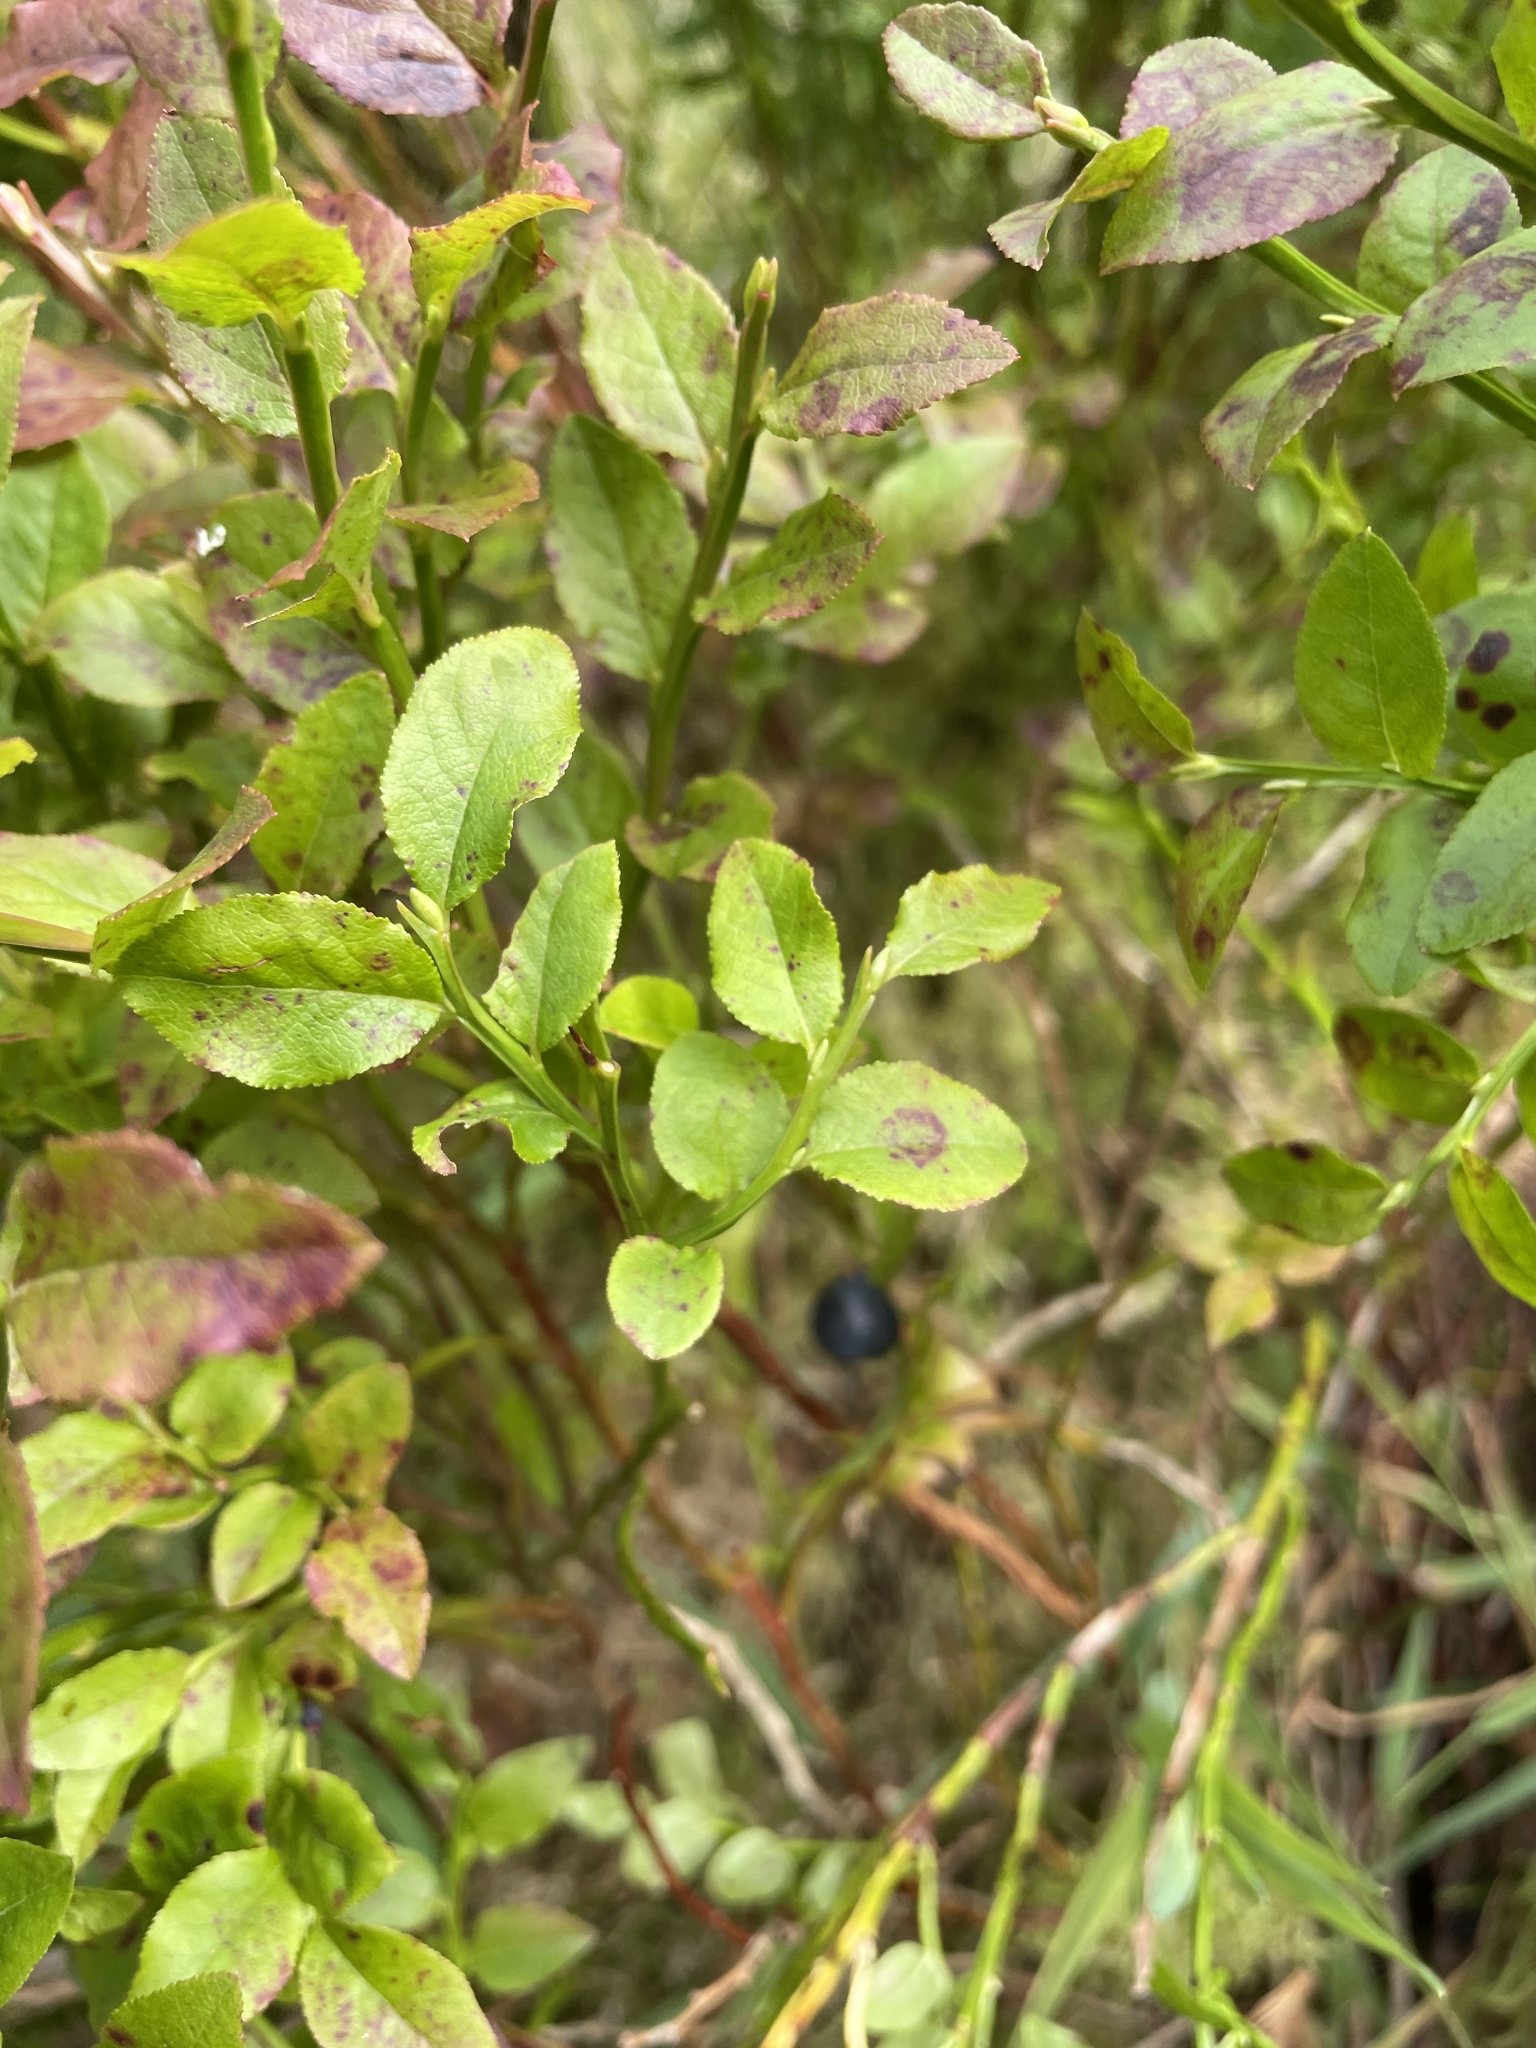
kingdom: Plantae
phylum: Tracheophyta
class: Magnoliopsida
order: Ericales
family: Ericaceae
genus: Vaccinium
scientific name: Vaccinium myrtillus
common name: Bilberry
